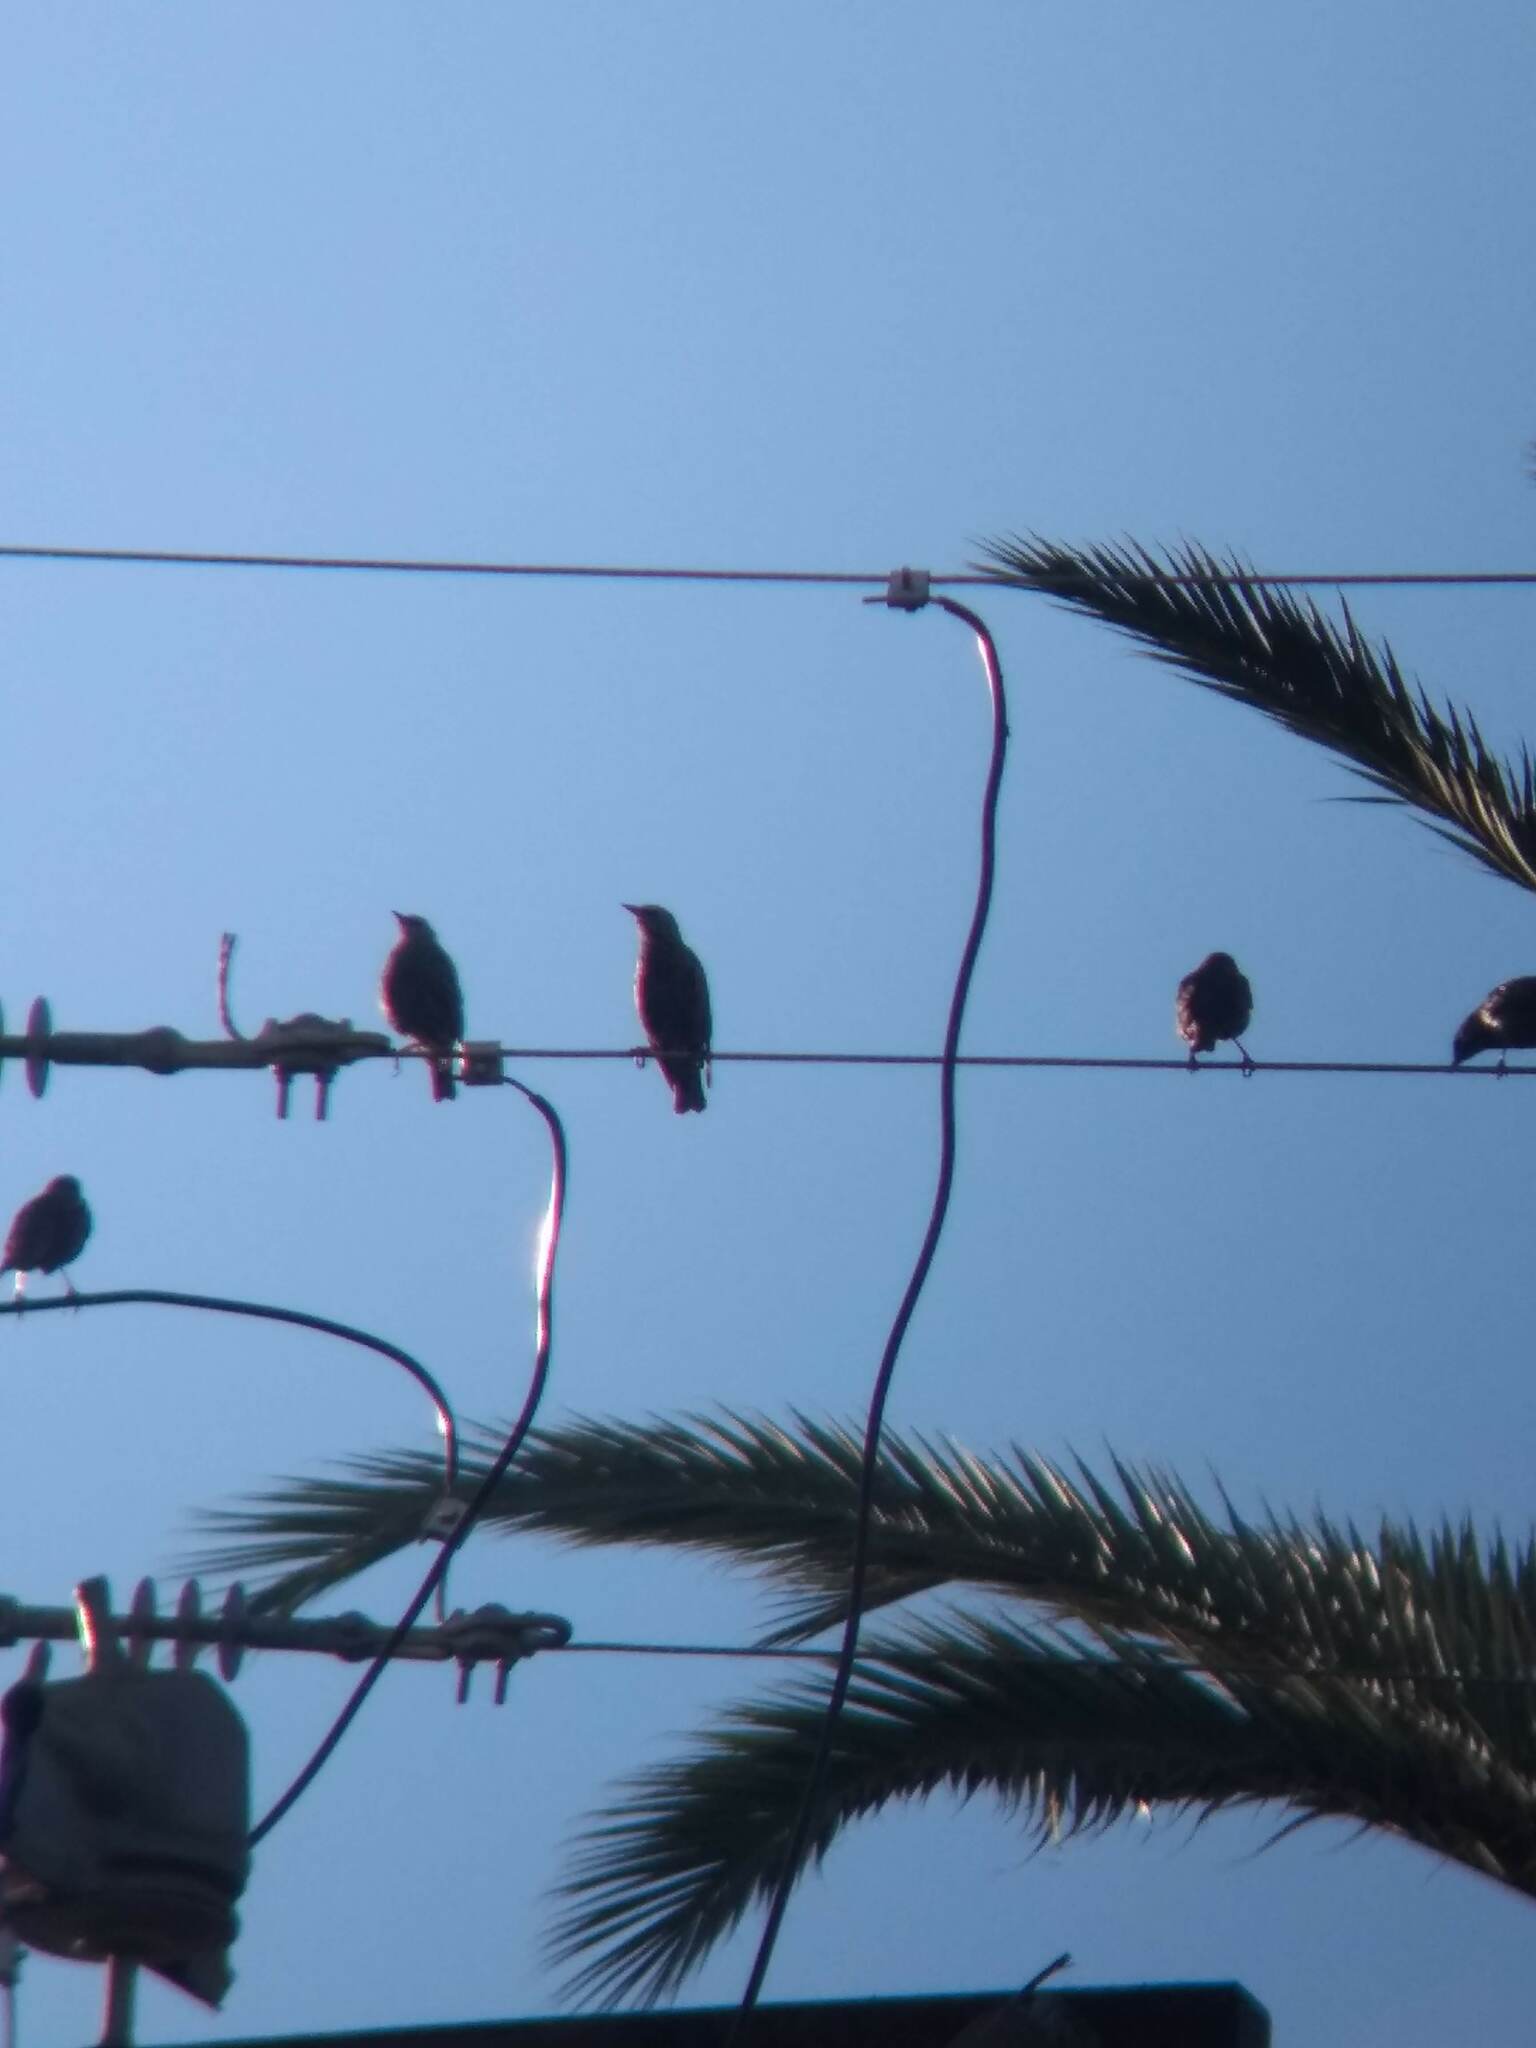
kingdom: Animalia
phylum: Chordata
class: Aves
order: Passeriformes
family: Sturnidae
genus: Sturnus
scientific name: Sturnus vulgaris
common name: Common starling
